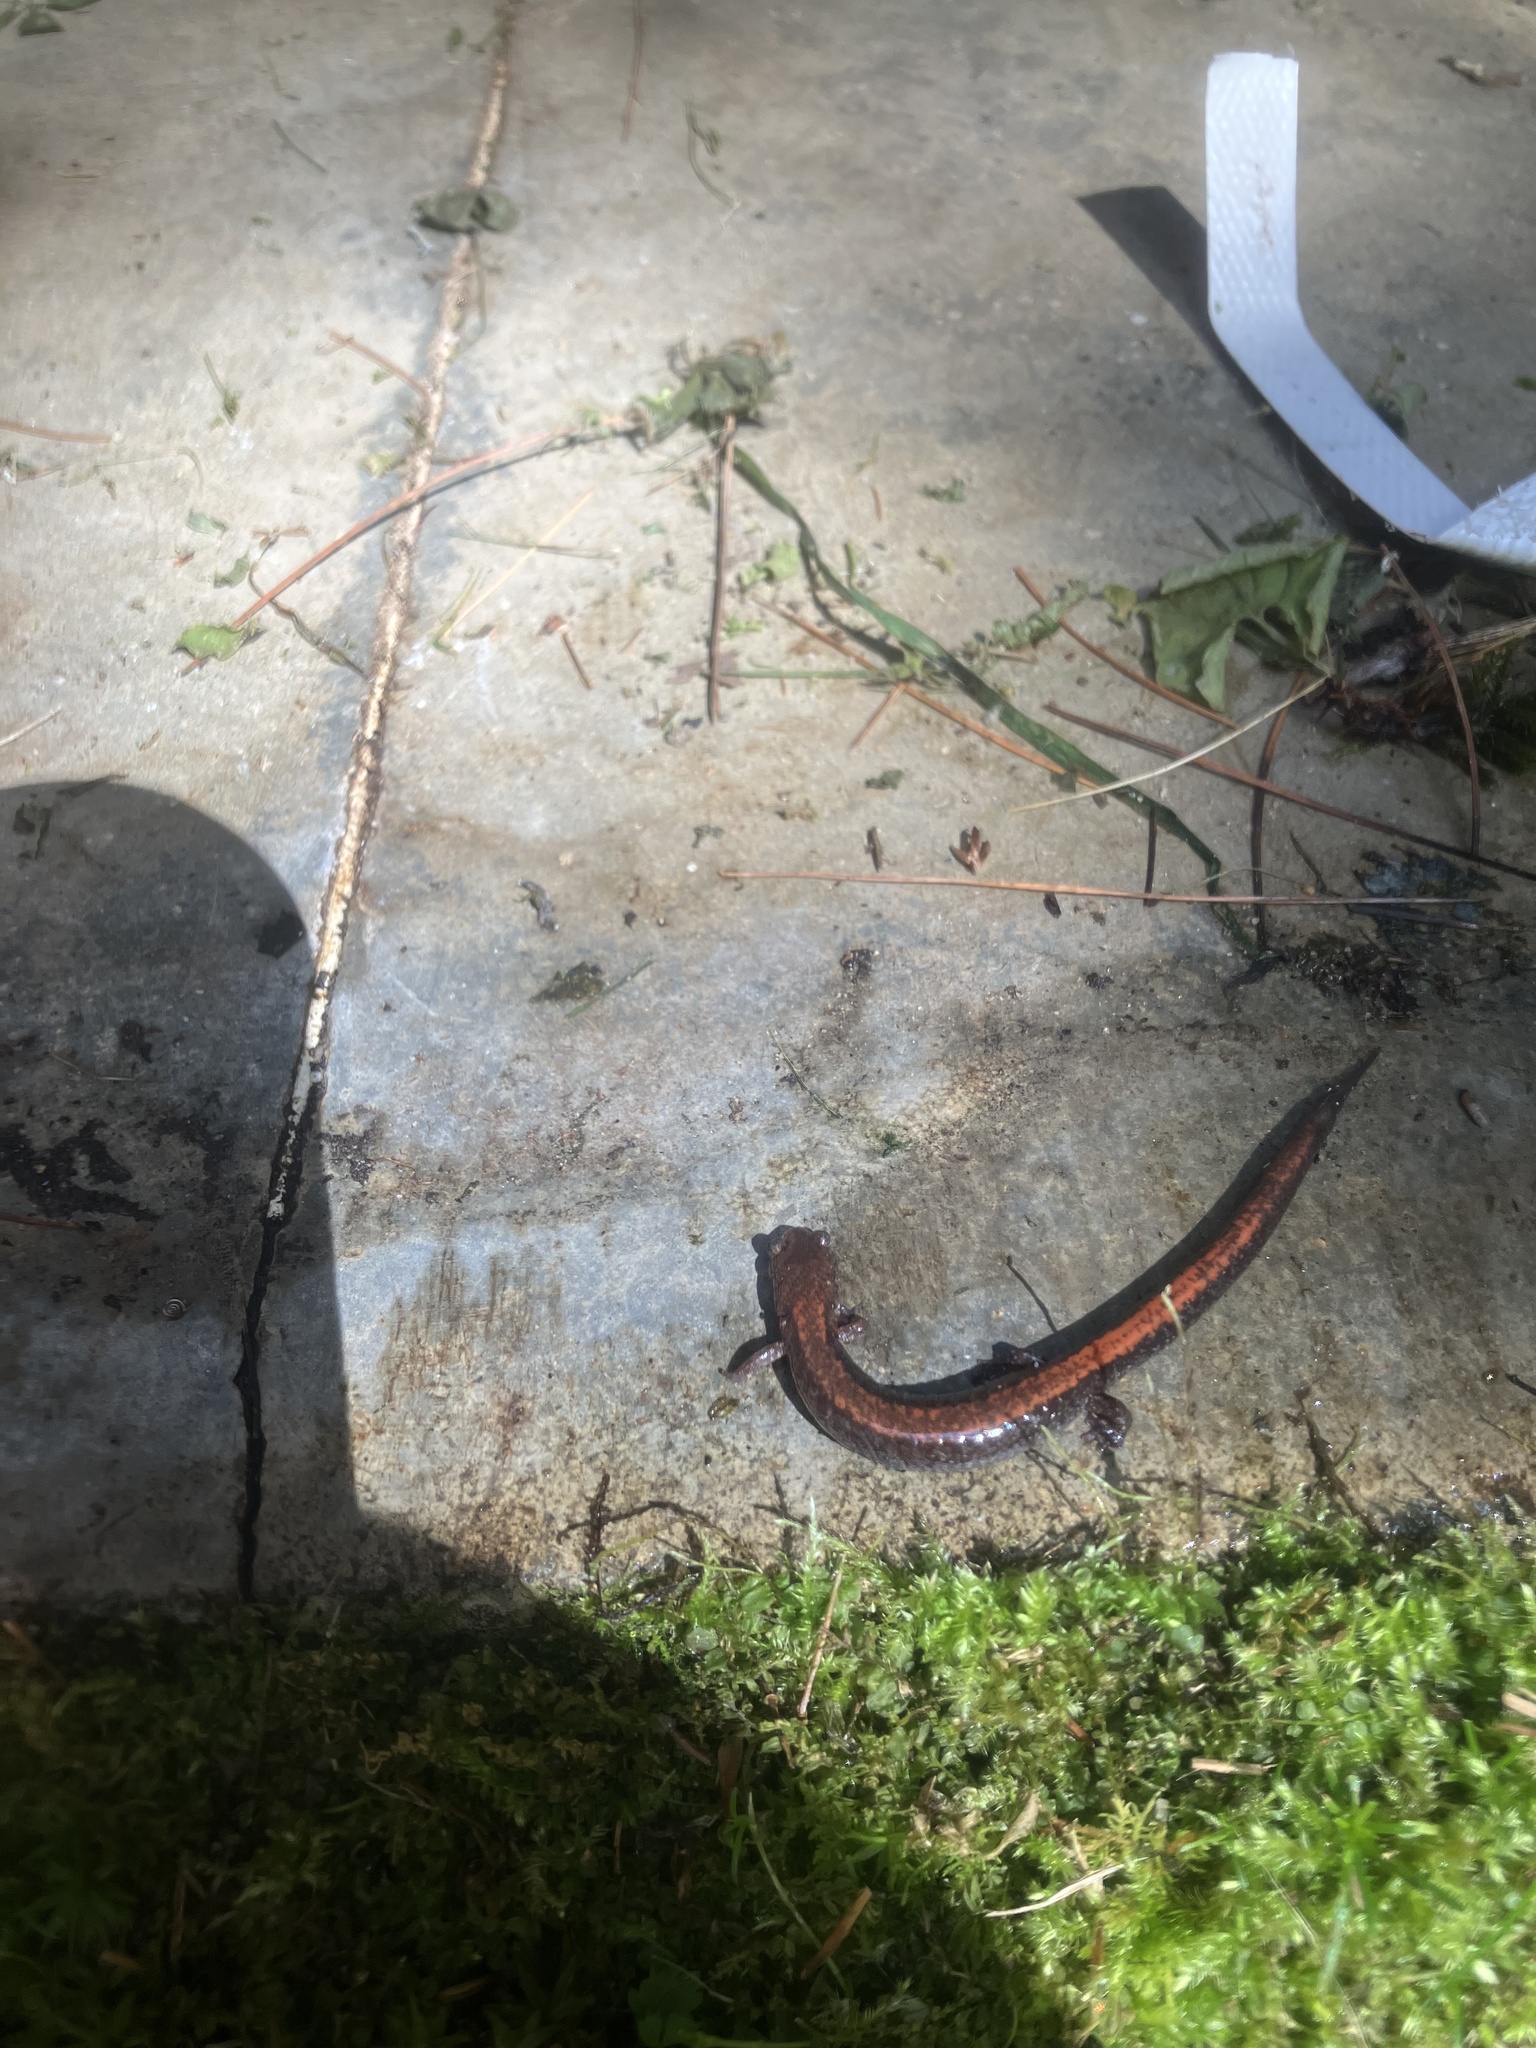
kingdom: Animalia
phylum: Chordata
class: Amphibia
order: Caudata
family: Plethodontidae
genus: Plethodon
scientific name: Plethodon cinereus
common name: Redback salamander
